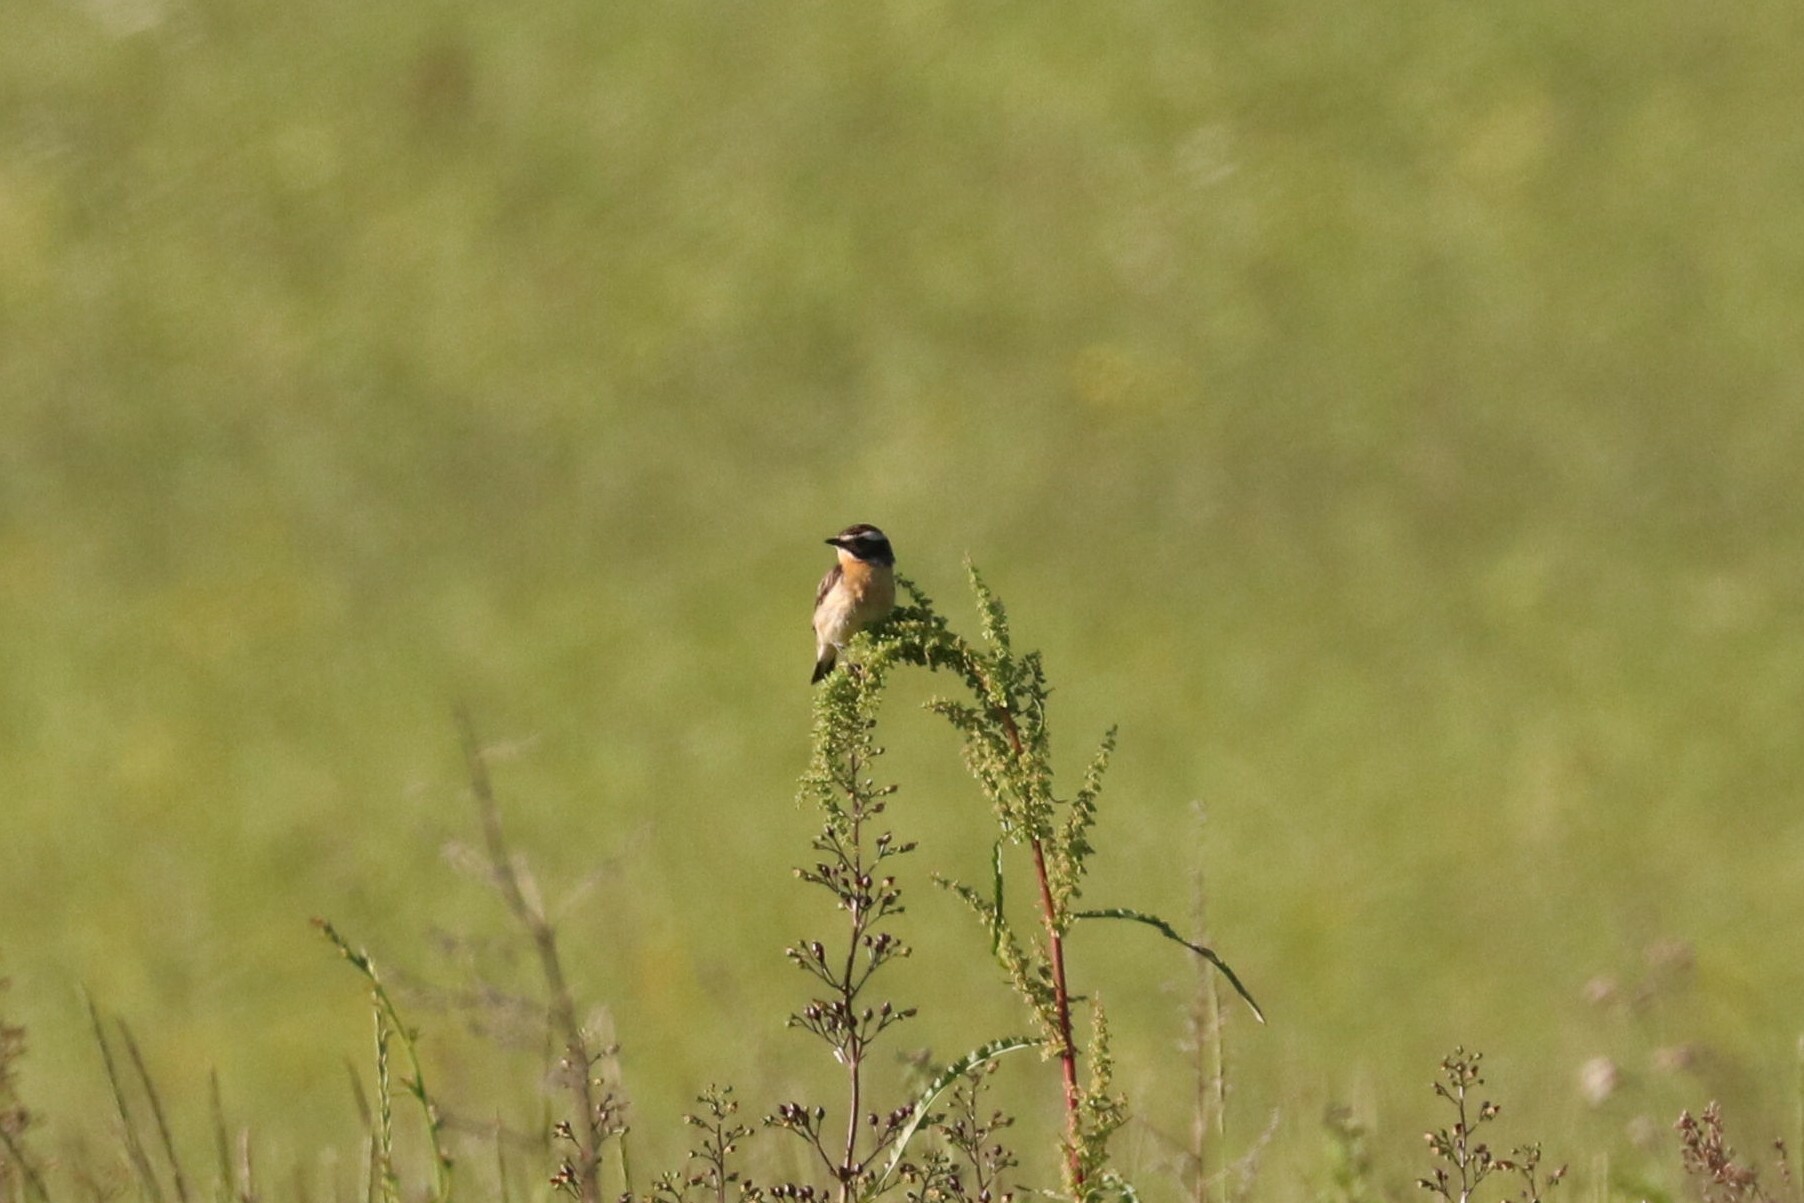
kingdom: Animalia
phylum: Chordata
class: Aves
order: Passeriformes
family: Muscicapidae
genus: Saxicola
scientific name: Saxicola rubetra
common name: Whinchat
